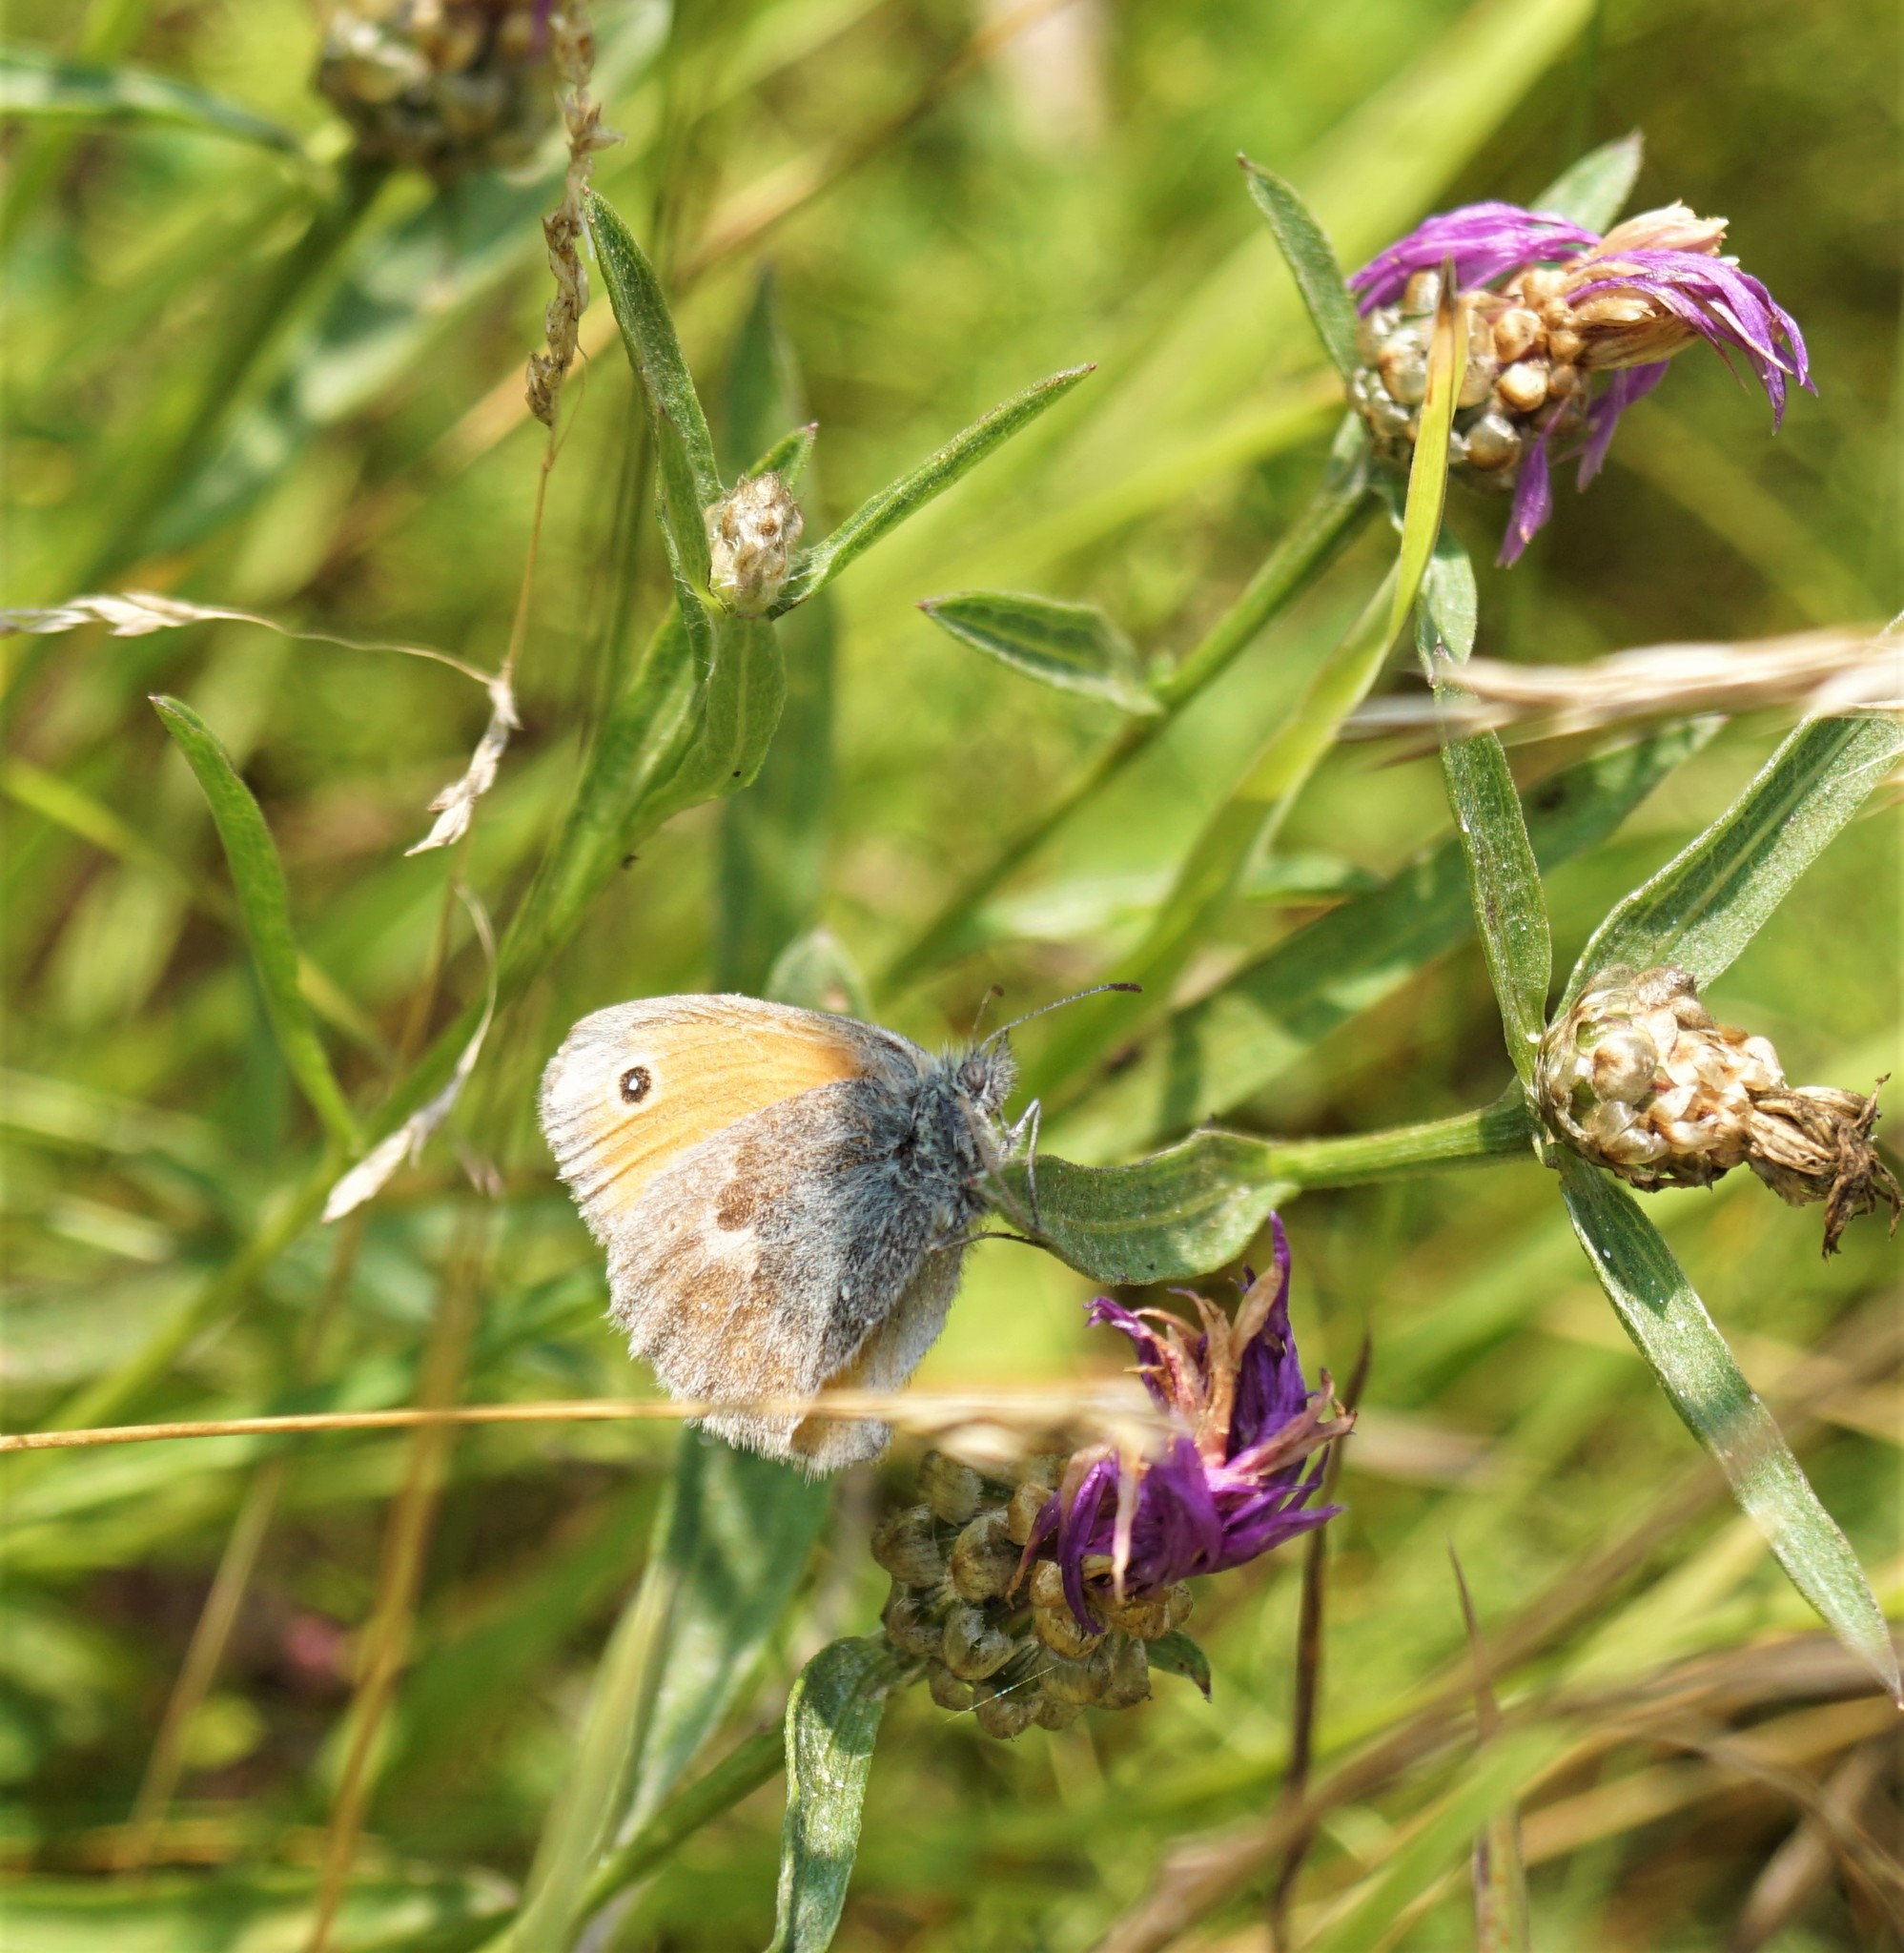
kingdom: Animalia
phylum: Arthropoda
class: Insecta
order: Lepidoptera
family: Nymphalidae
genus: Coenonympha
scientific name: Coenonympha pamphilus
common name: Small heath
